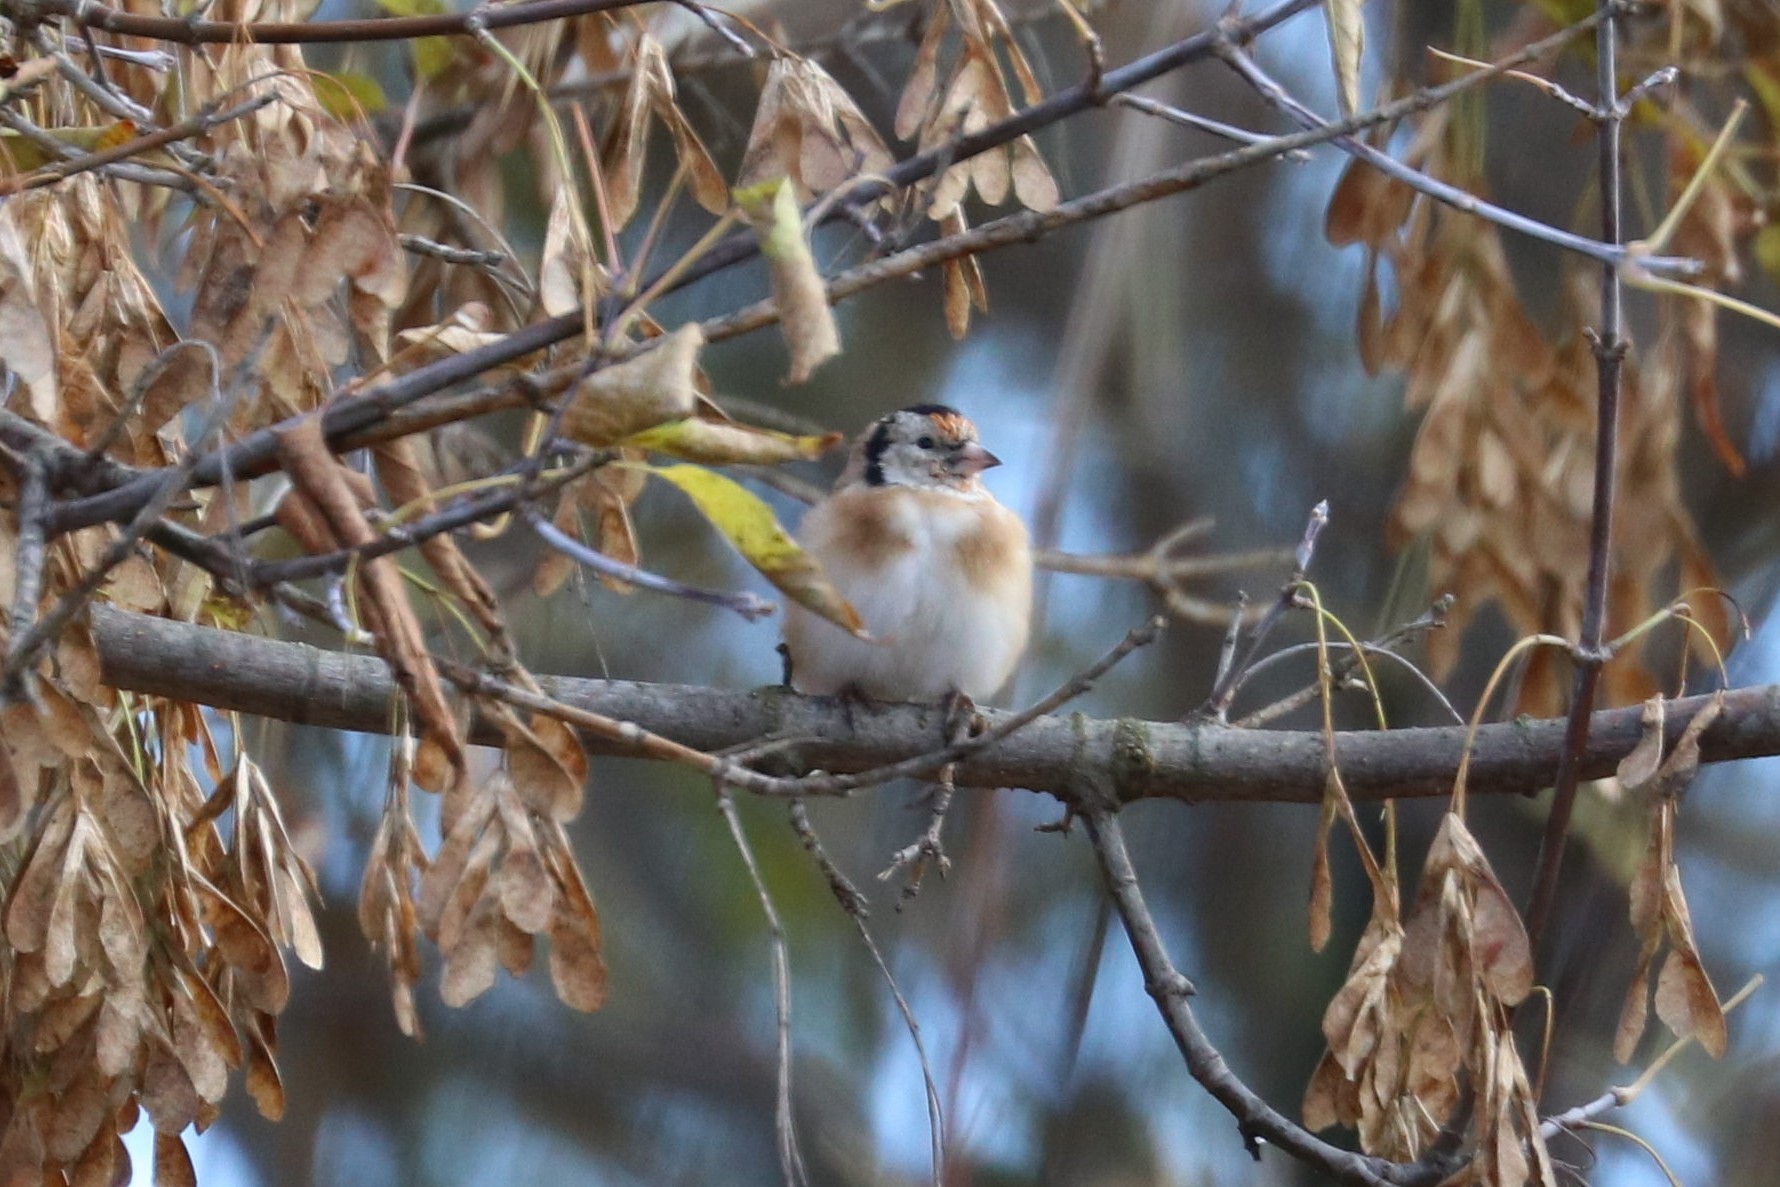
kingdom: Animalia
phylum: Chordata
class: Aves
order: Passeriformes
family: Fringillidae
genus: Carduelis
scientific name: Carduelis carduelis
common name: European goldfinch
